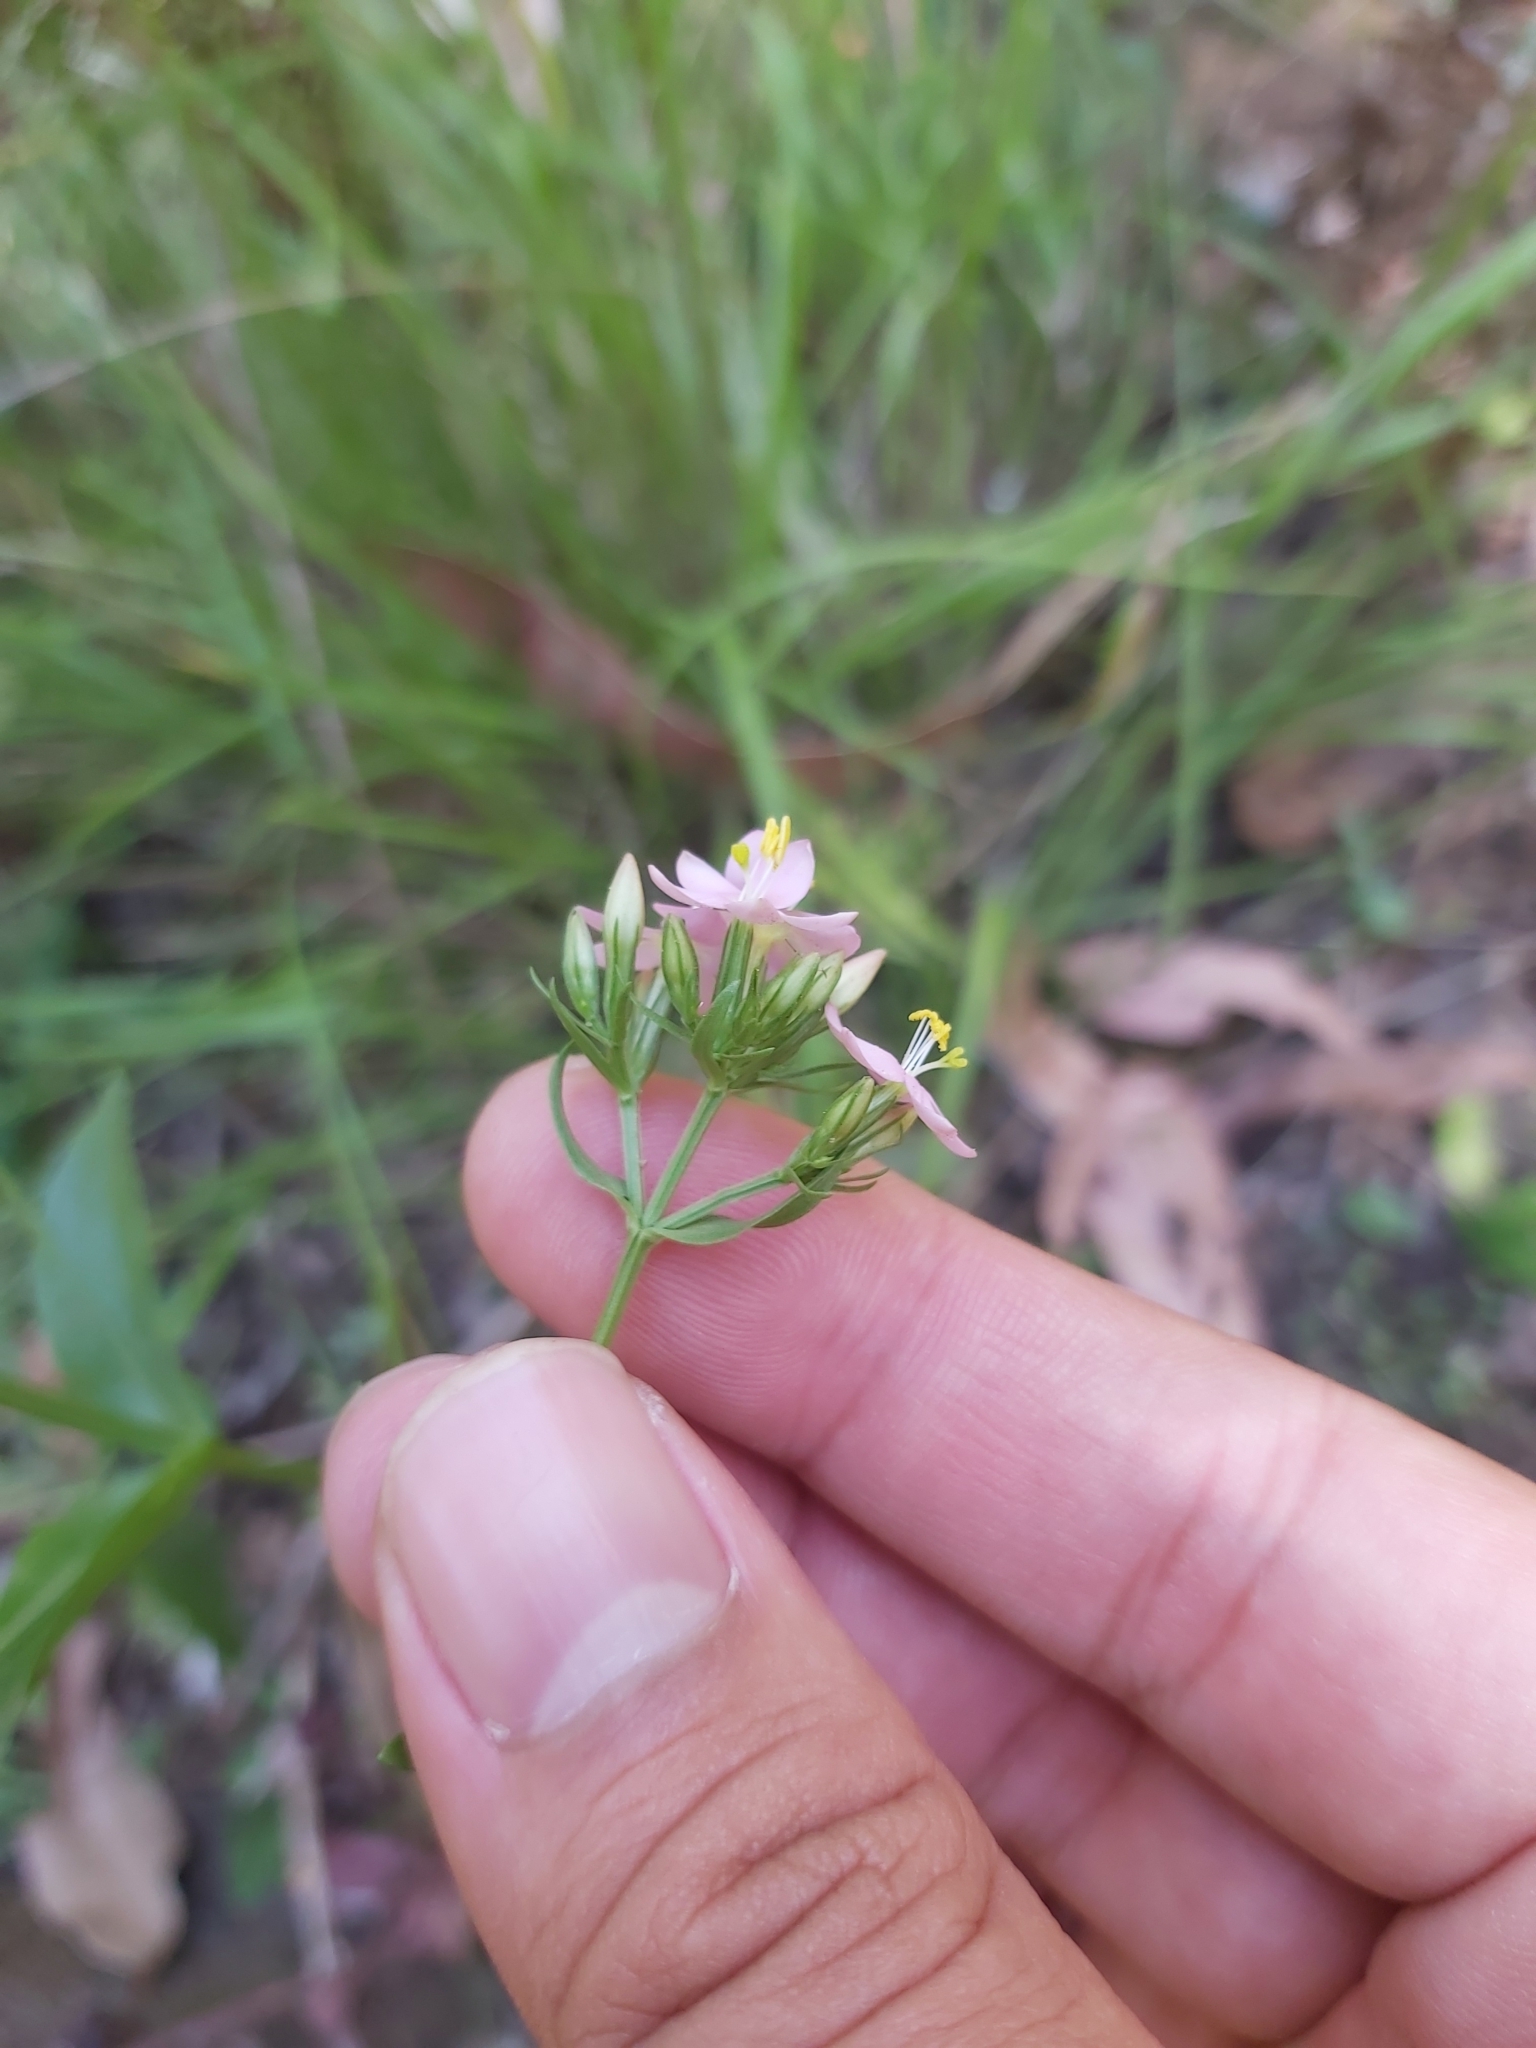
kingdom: Plantae
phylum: Tracheophyta
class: Magnoliopsida
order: Gentianales
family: Gentianaceae
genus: Centaurium
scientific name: Centaurium erythraea
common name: Common centaury
